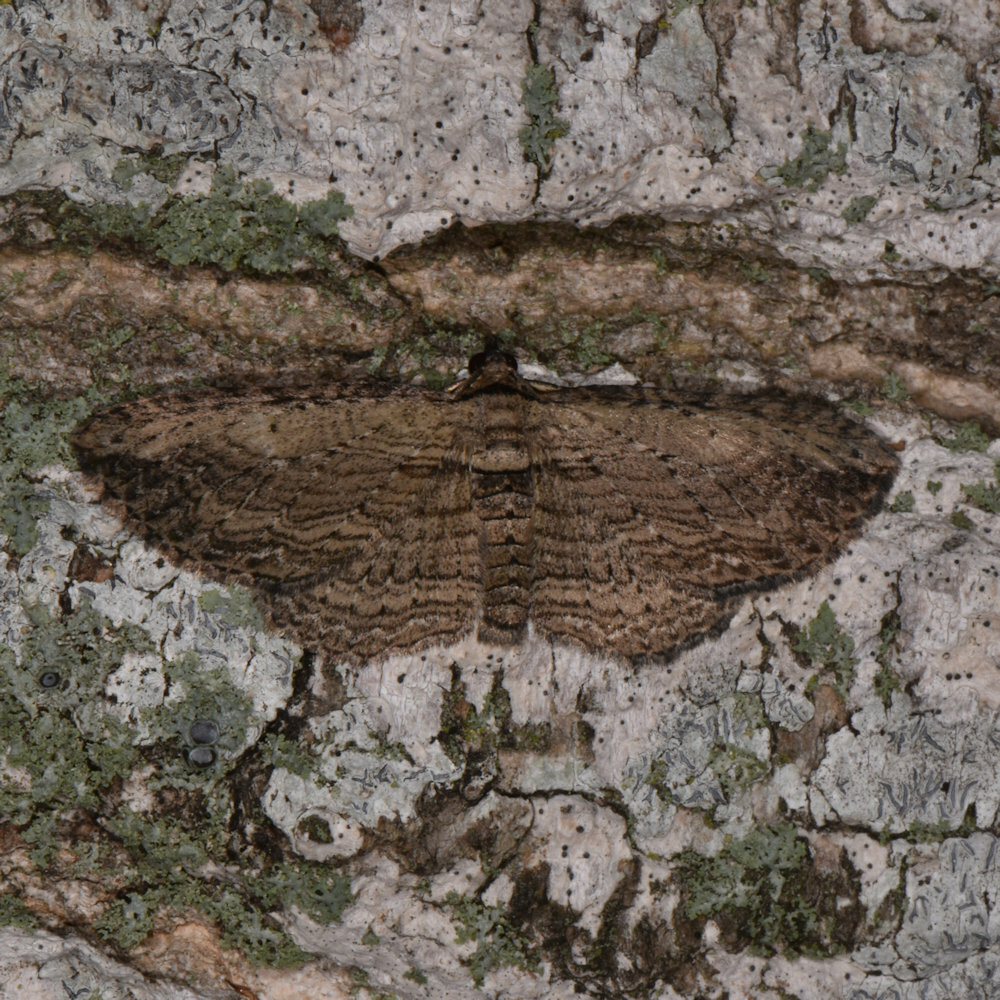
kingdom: Animalia
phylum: Arthropoda
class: Insecta
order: Lepidoptera
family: Geometridae
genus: Horisme
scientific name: Horisme intestinata
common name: Brown bark carpet
